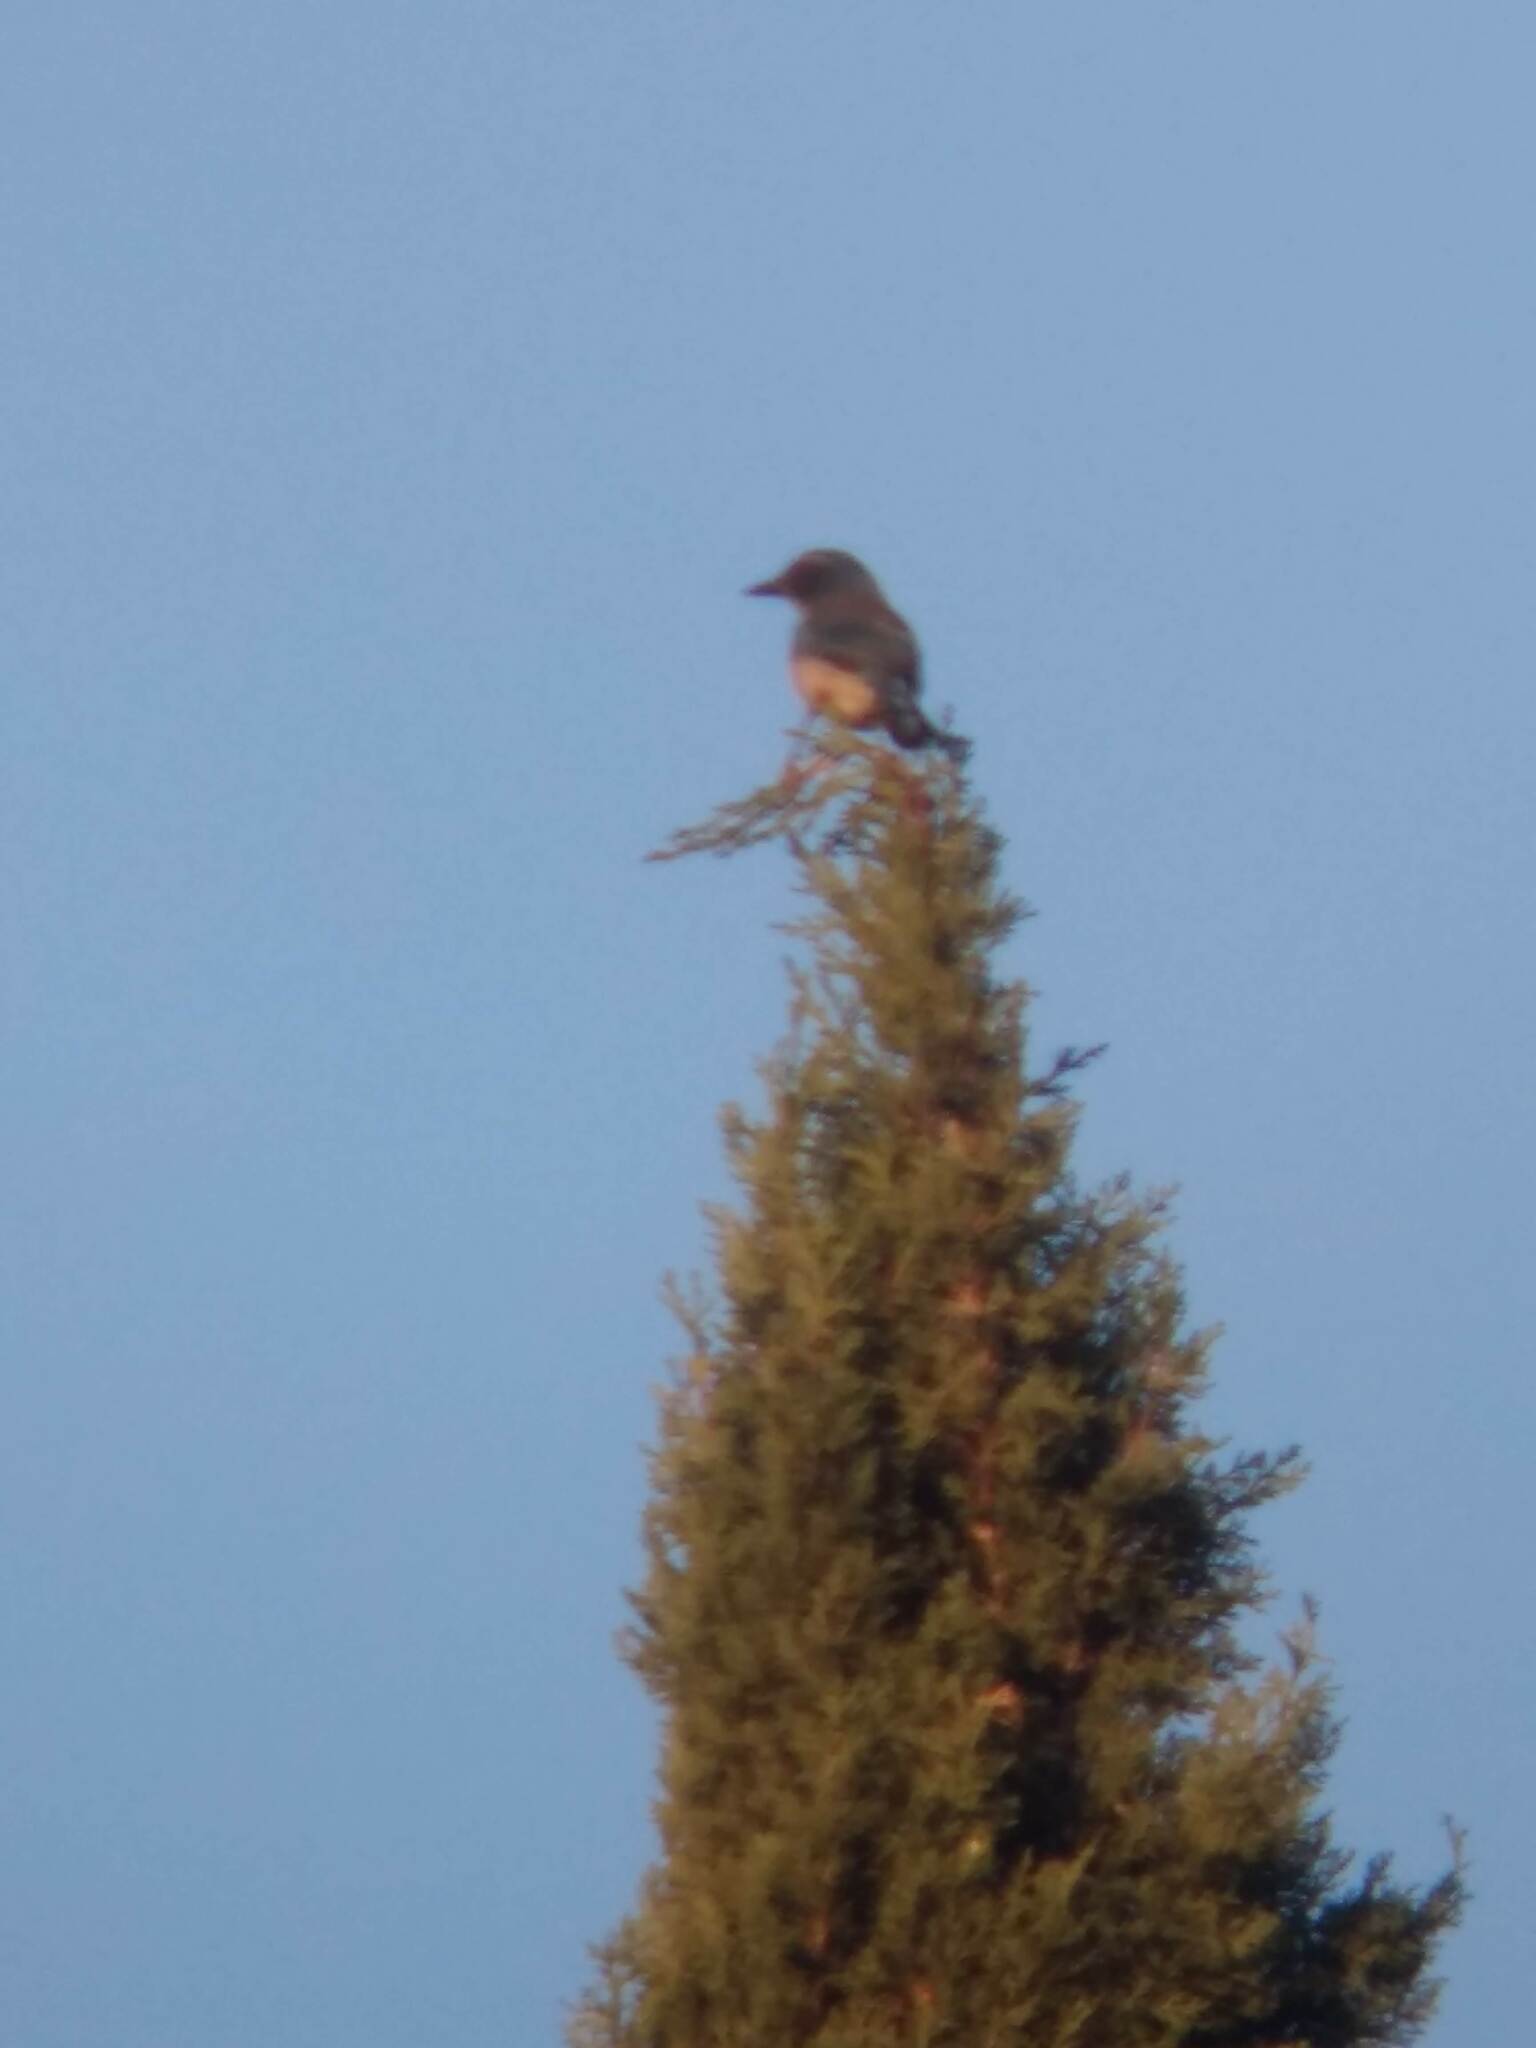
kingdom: Animalia
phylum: Chordata
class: Aves
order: Passeriformes
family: Corvidae
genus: Aphelocoma
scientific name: Aphelocoma californica
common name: California scrub-jay
